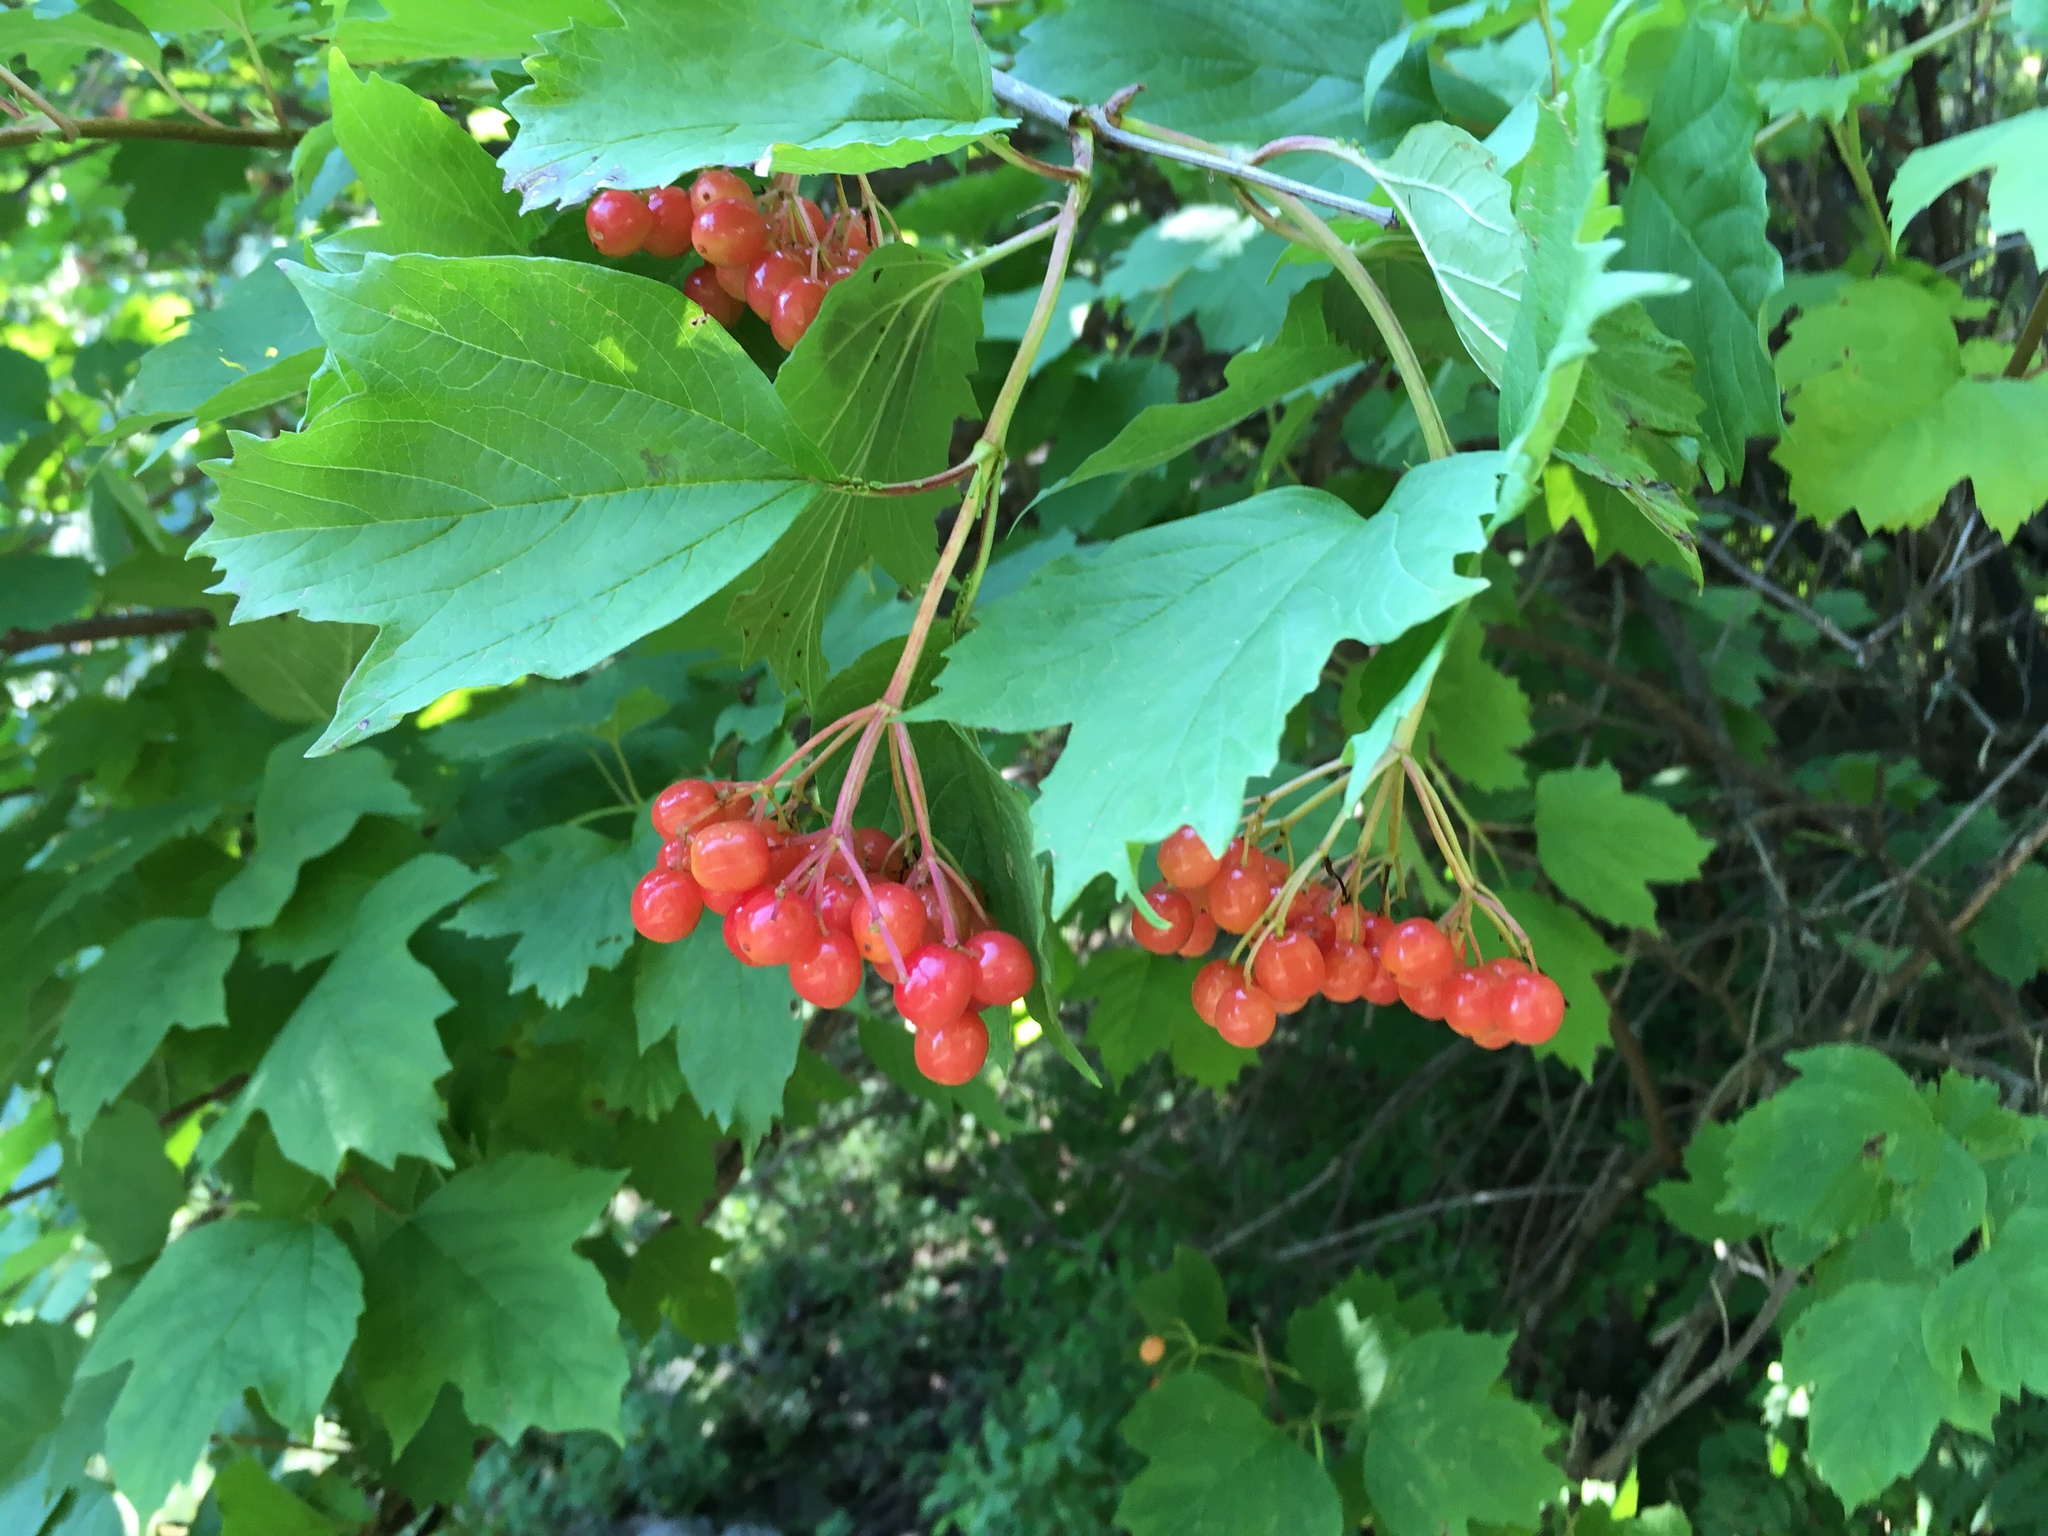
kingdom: Plantae
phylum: Tracheophyta
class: Magnoliopsida
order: Dipsacales
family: Viburnaceae
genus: Viburnum
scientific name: Viburnum opulus
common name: Guelder-rose
